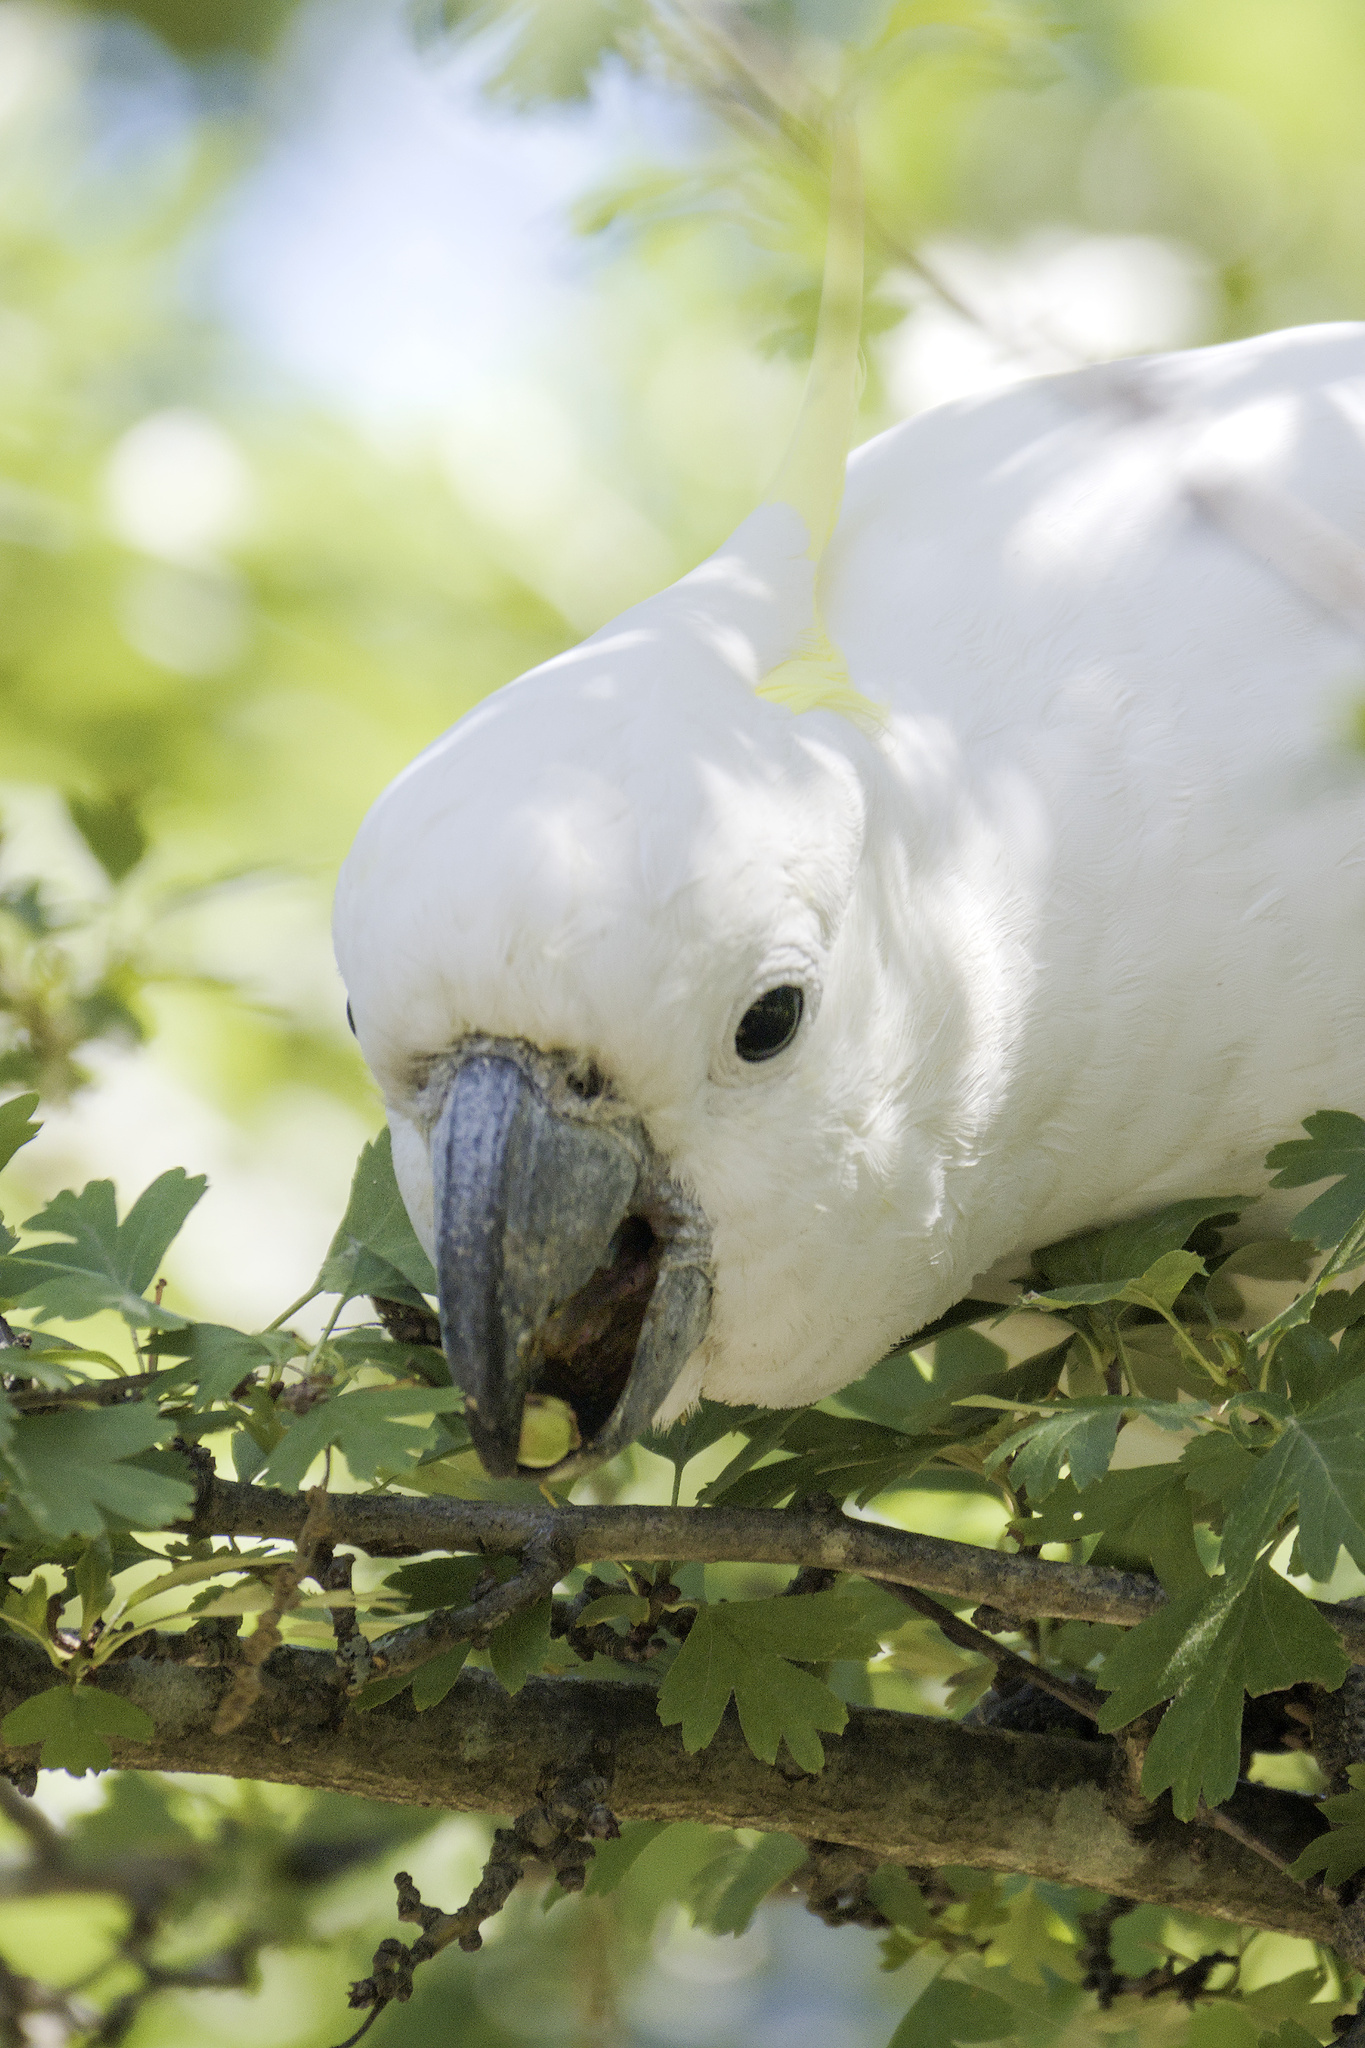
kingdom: Animalia
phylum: Chordata
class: Aves
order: Psittaciformes
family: Psittacidae
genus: Cacatua
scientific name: Cacatua galerita
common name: Sulphur-crested cockatoo
